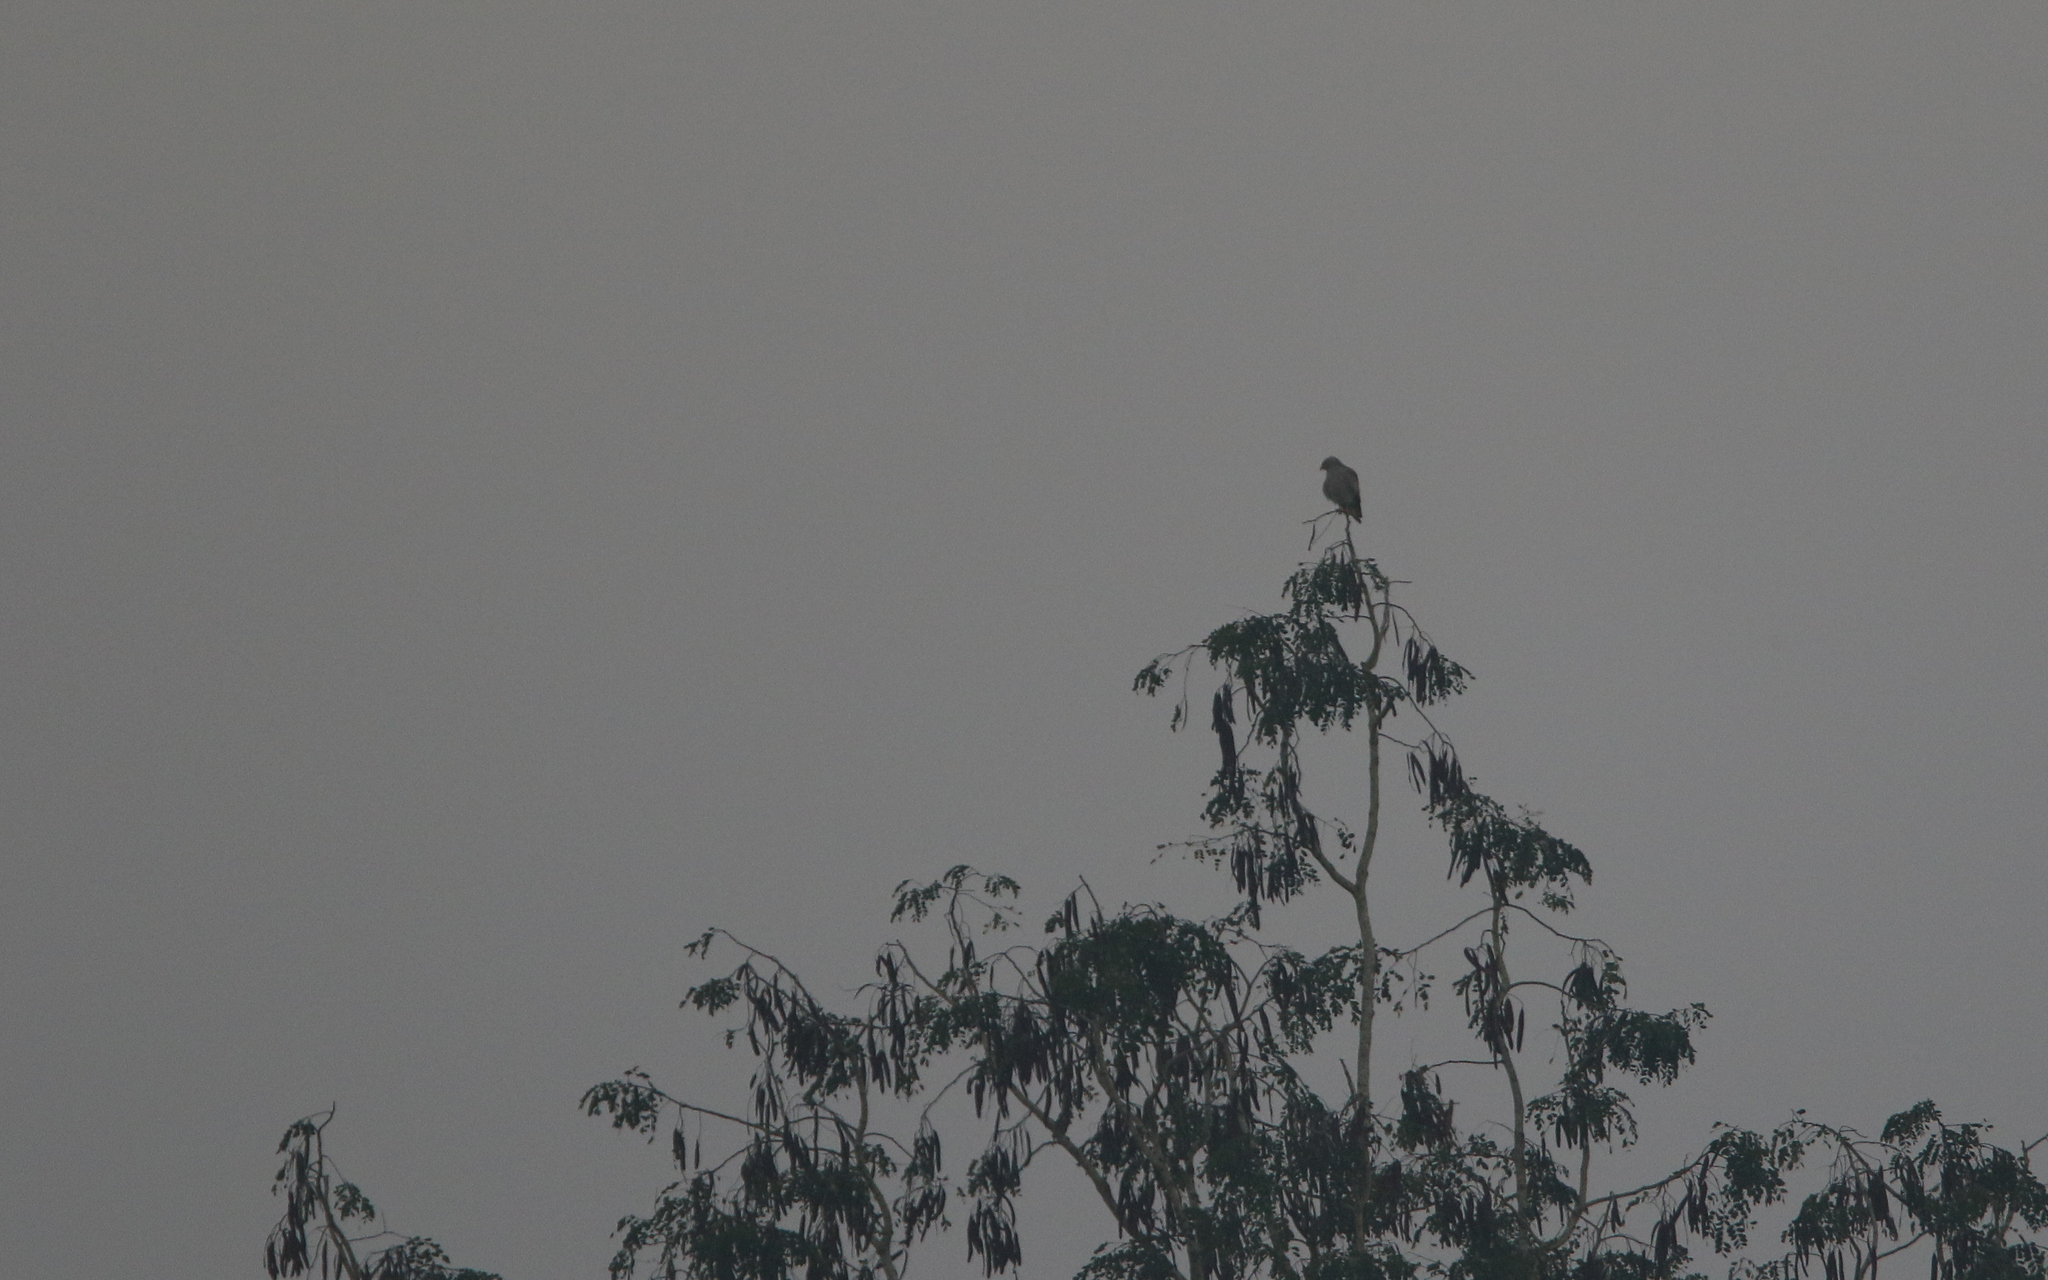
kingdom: Animalia
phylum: Chordata
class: Aves
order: Accipitriformes
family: Accipitridae
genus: Butastur
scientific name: Butastur liventer
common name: Rufous-winged buzzard
